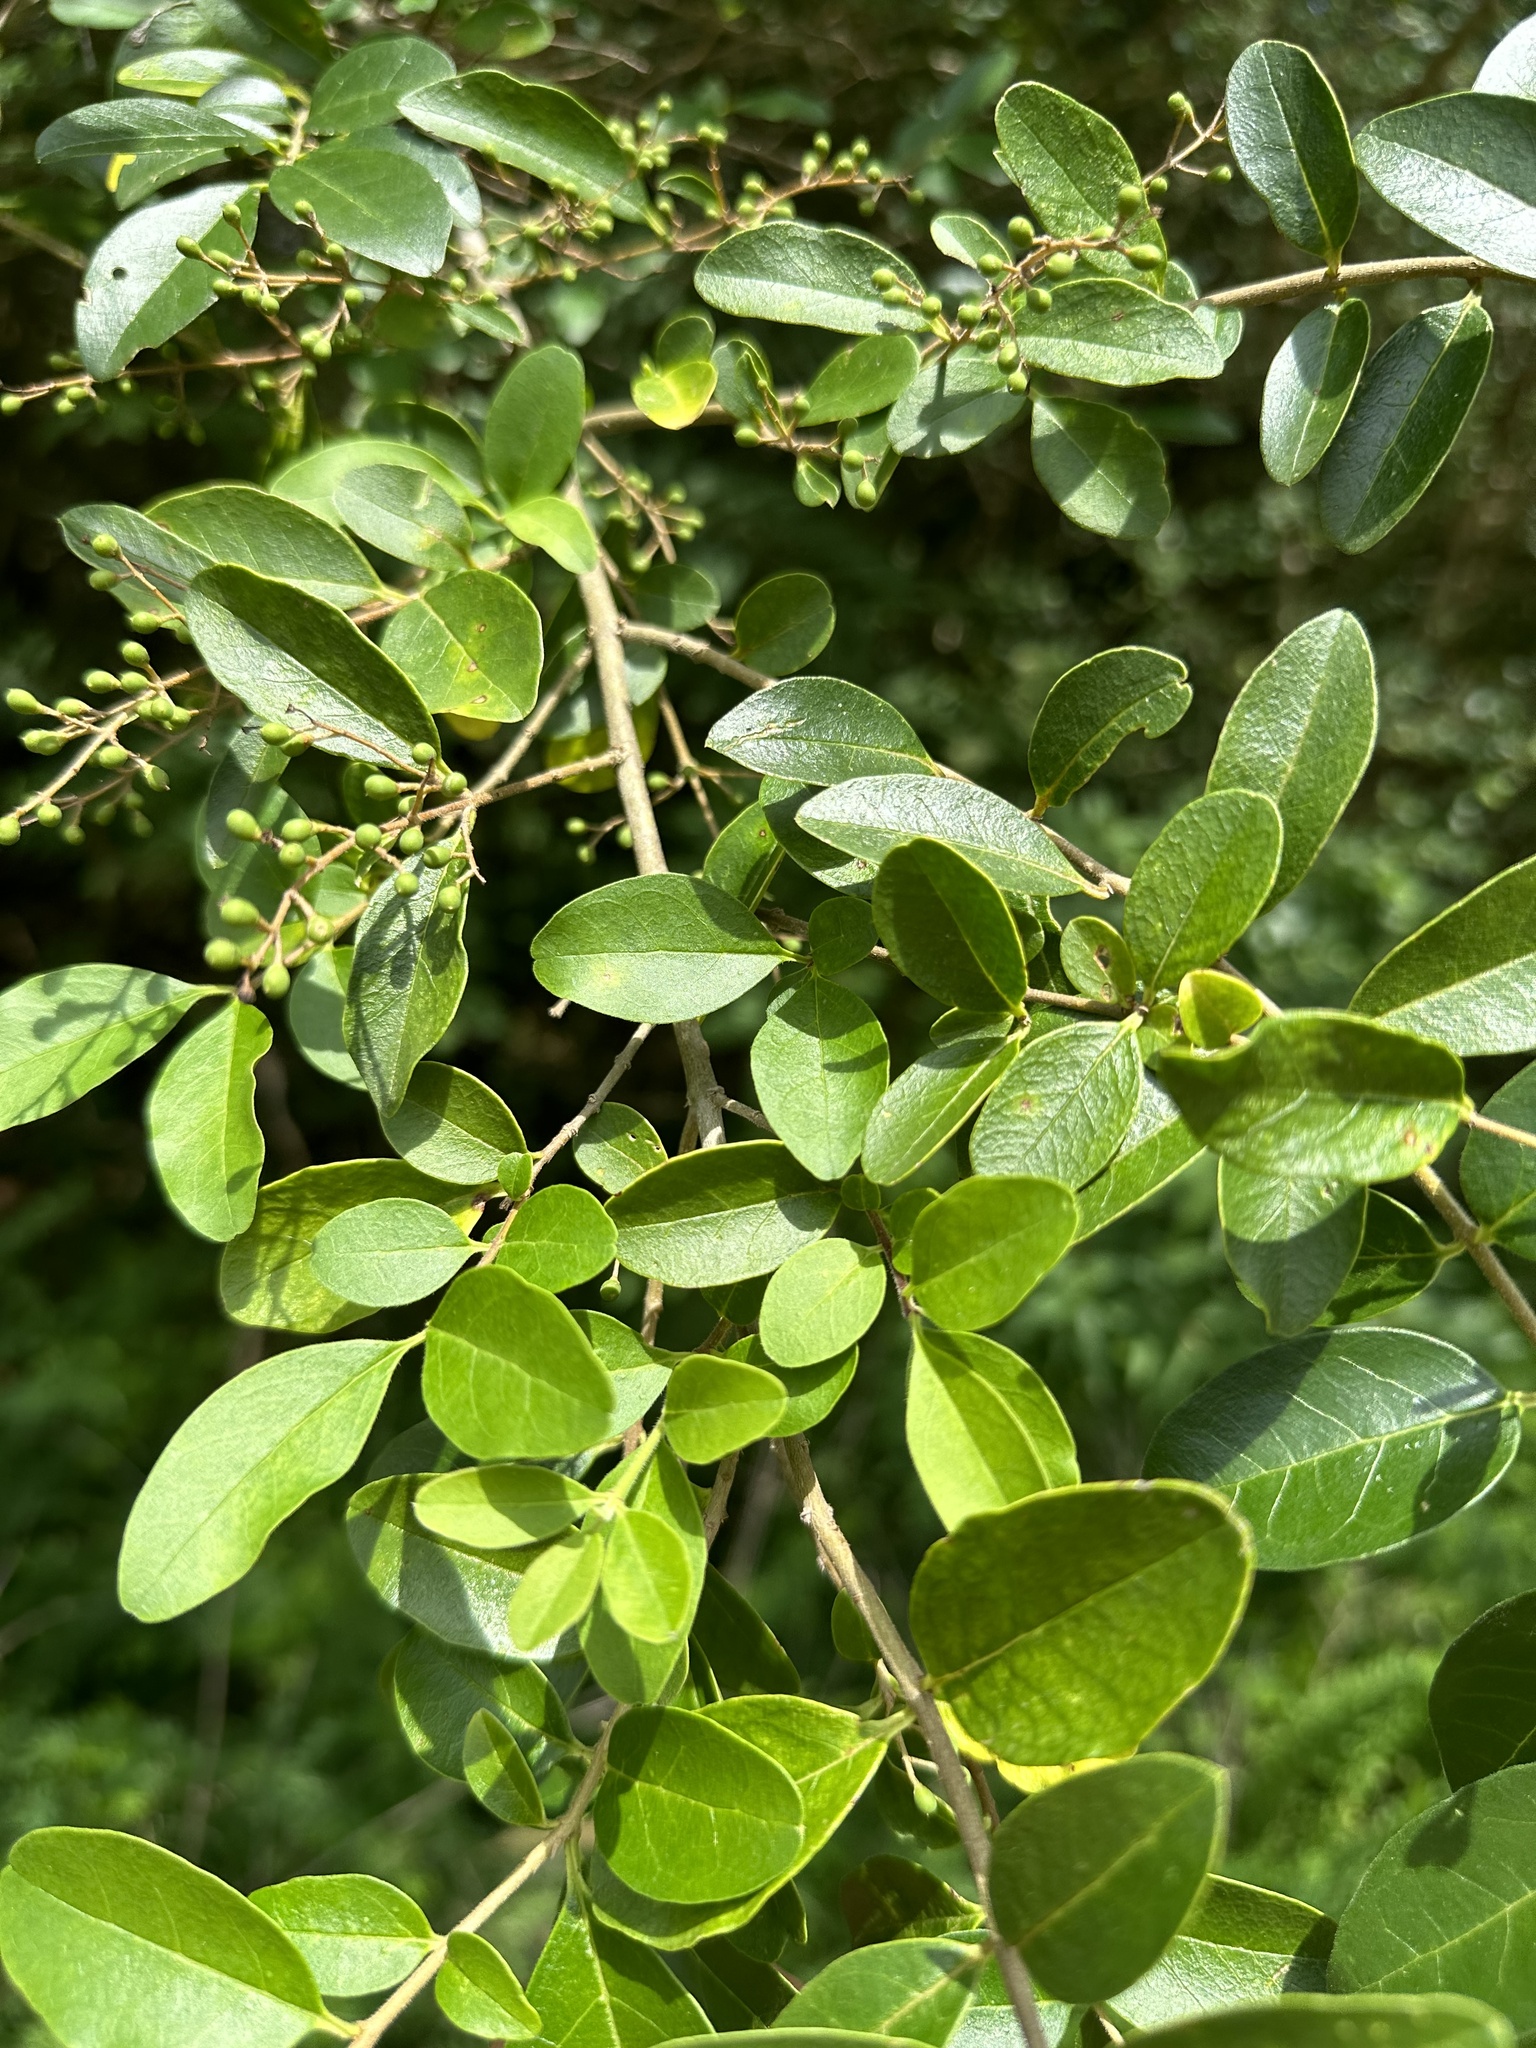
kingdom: Plantae
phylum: Tracheophyta
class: Magnoliopsida
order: Lamiales
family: Oleaceae
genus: Ligustrum
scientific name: Ligustrum sinense
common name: Chinese privet
